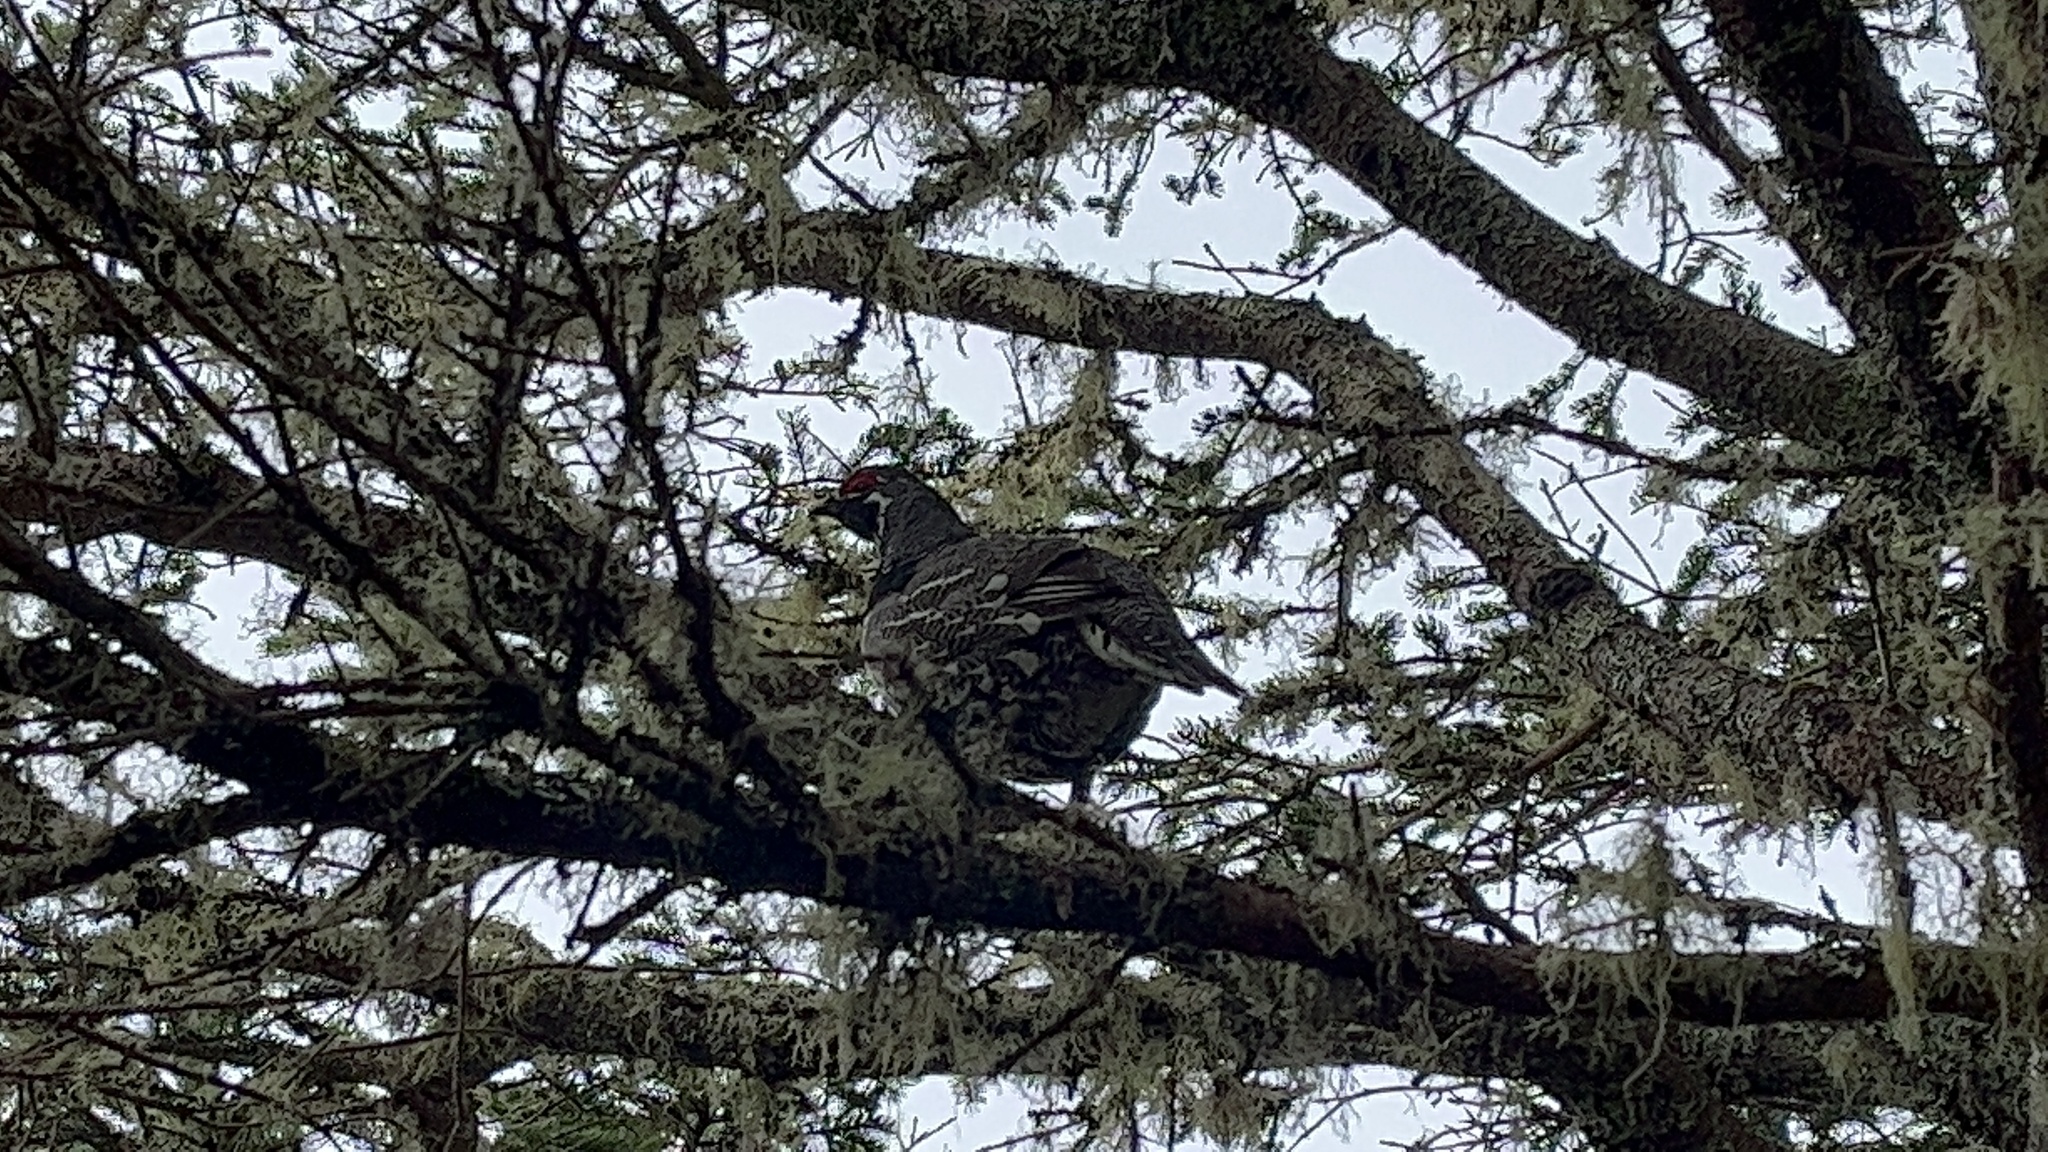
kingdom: Animalia
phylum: Chordata
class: Aves
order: Galliformes
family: Phasianidae
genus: Canachites
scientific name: Canachites canadensis
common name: Spruce grouse
